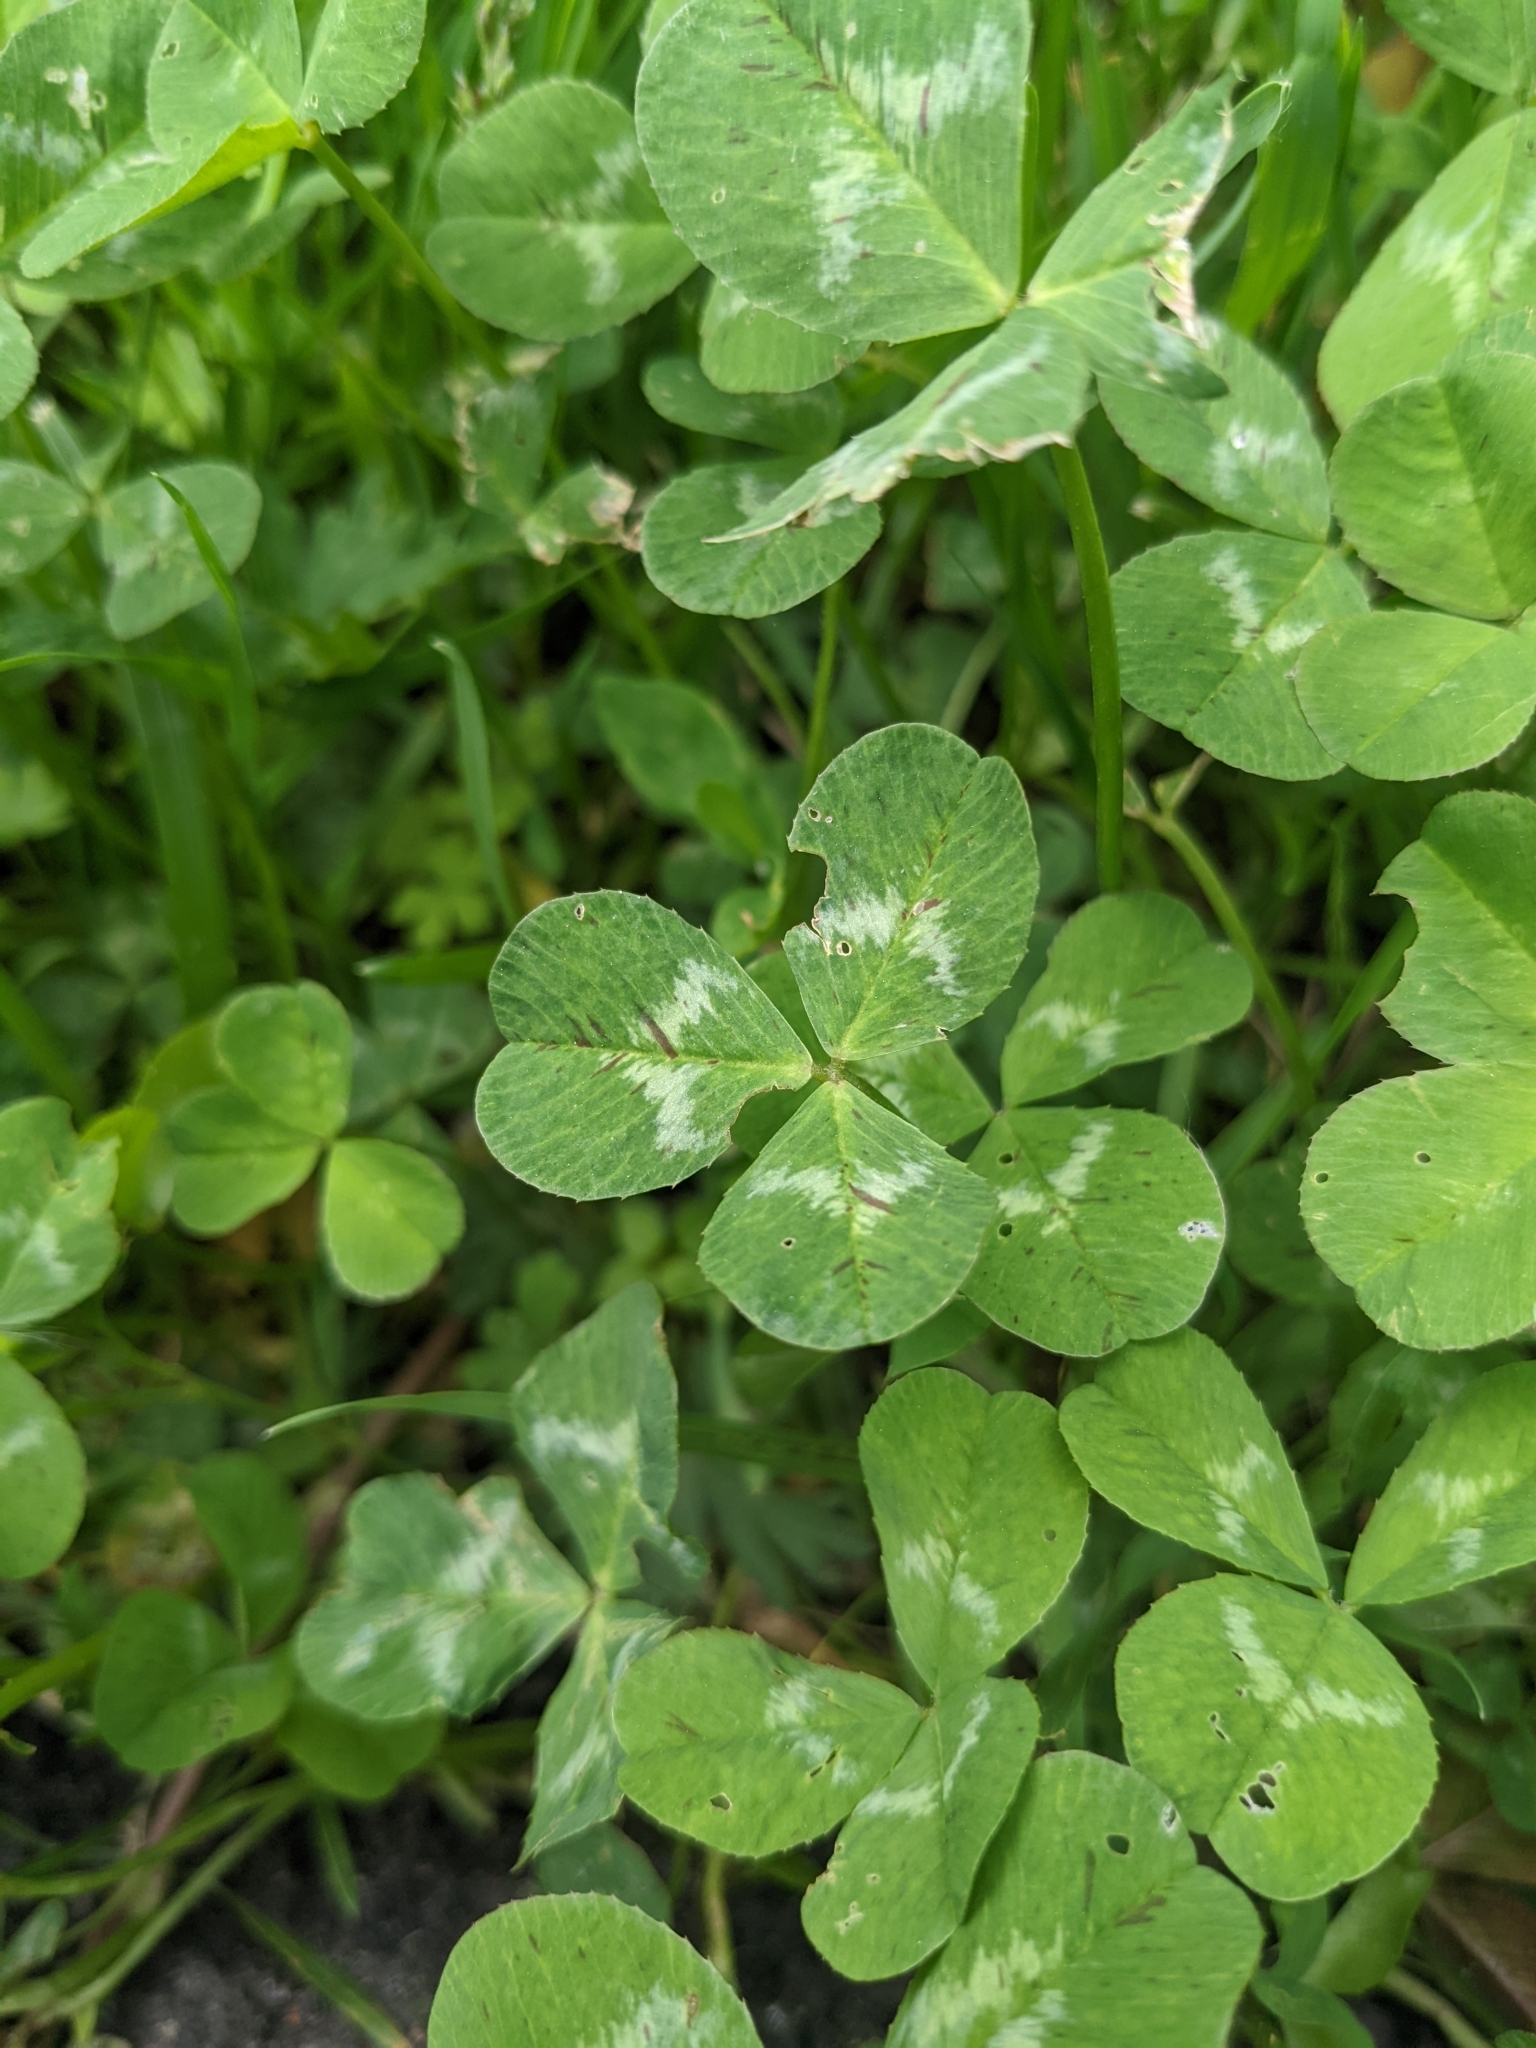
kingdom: Plantae
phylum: Tracheophyta
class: Magnoliopsida
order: Fabales
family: Fabaceae
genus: Trifolium
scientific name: Trifolium repens
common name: White clover
